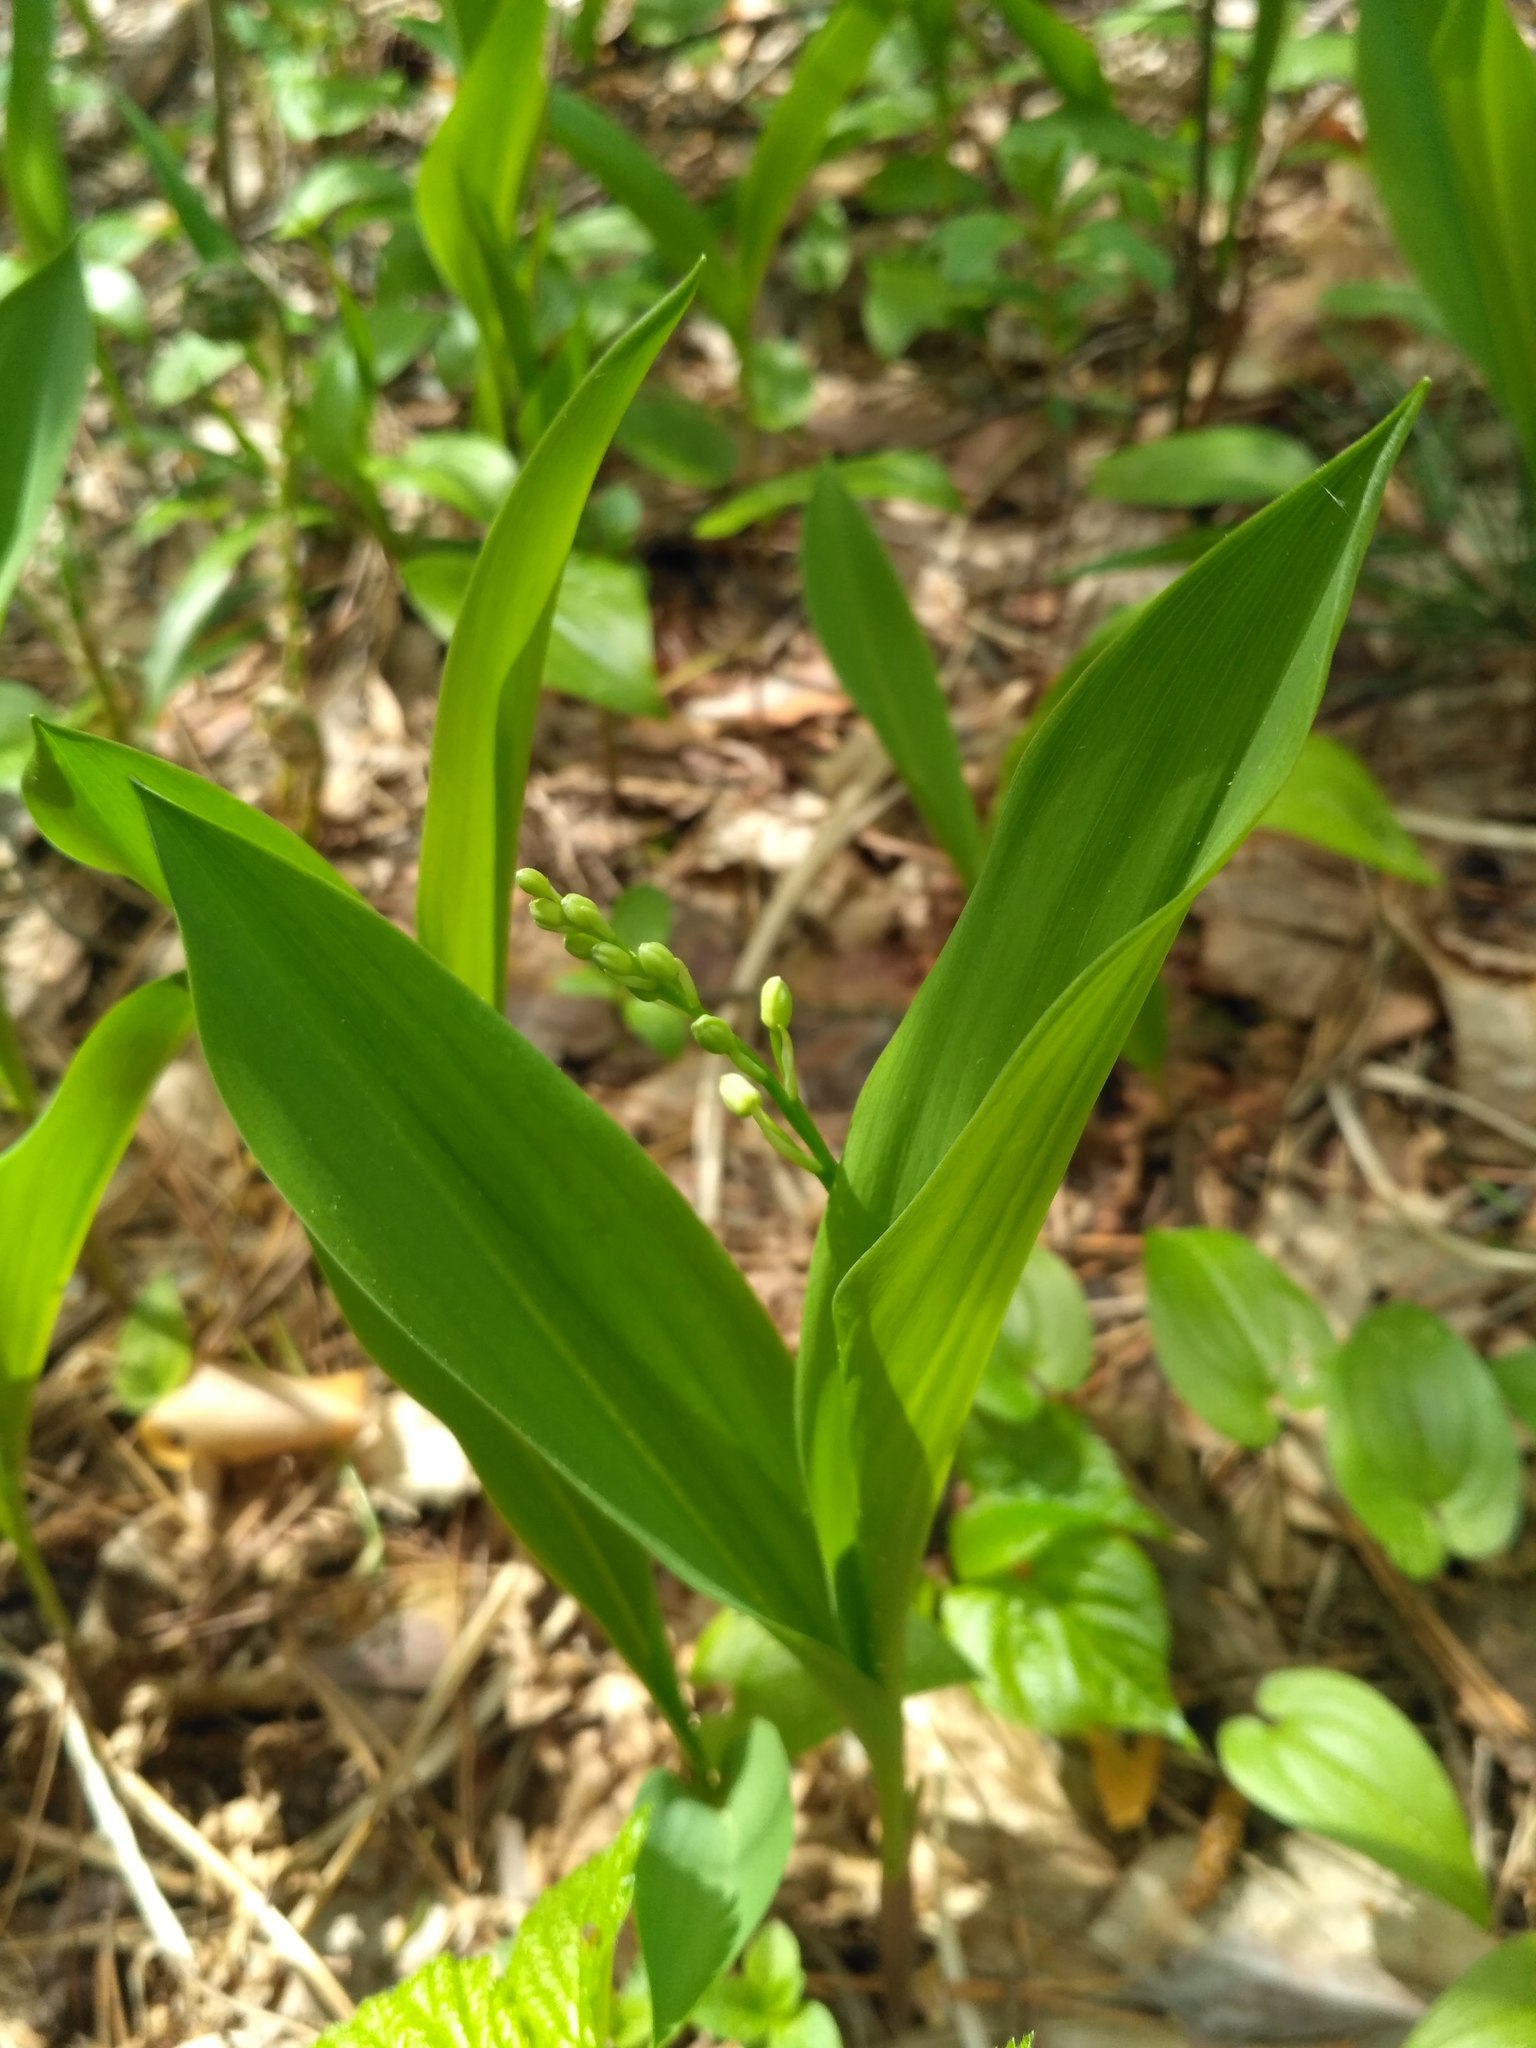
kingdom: Plantae
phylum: Tracheophyta
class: Liliopsida
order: Asparagales
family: Asparagaceae
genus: Convallaria
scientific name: Convallaria majalis
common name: Lily-of-the-valley
